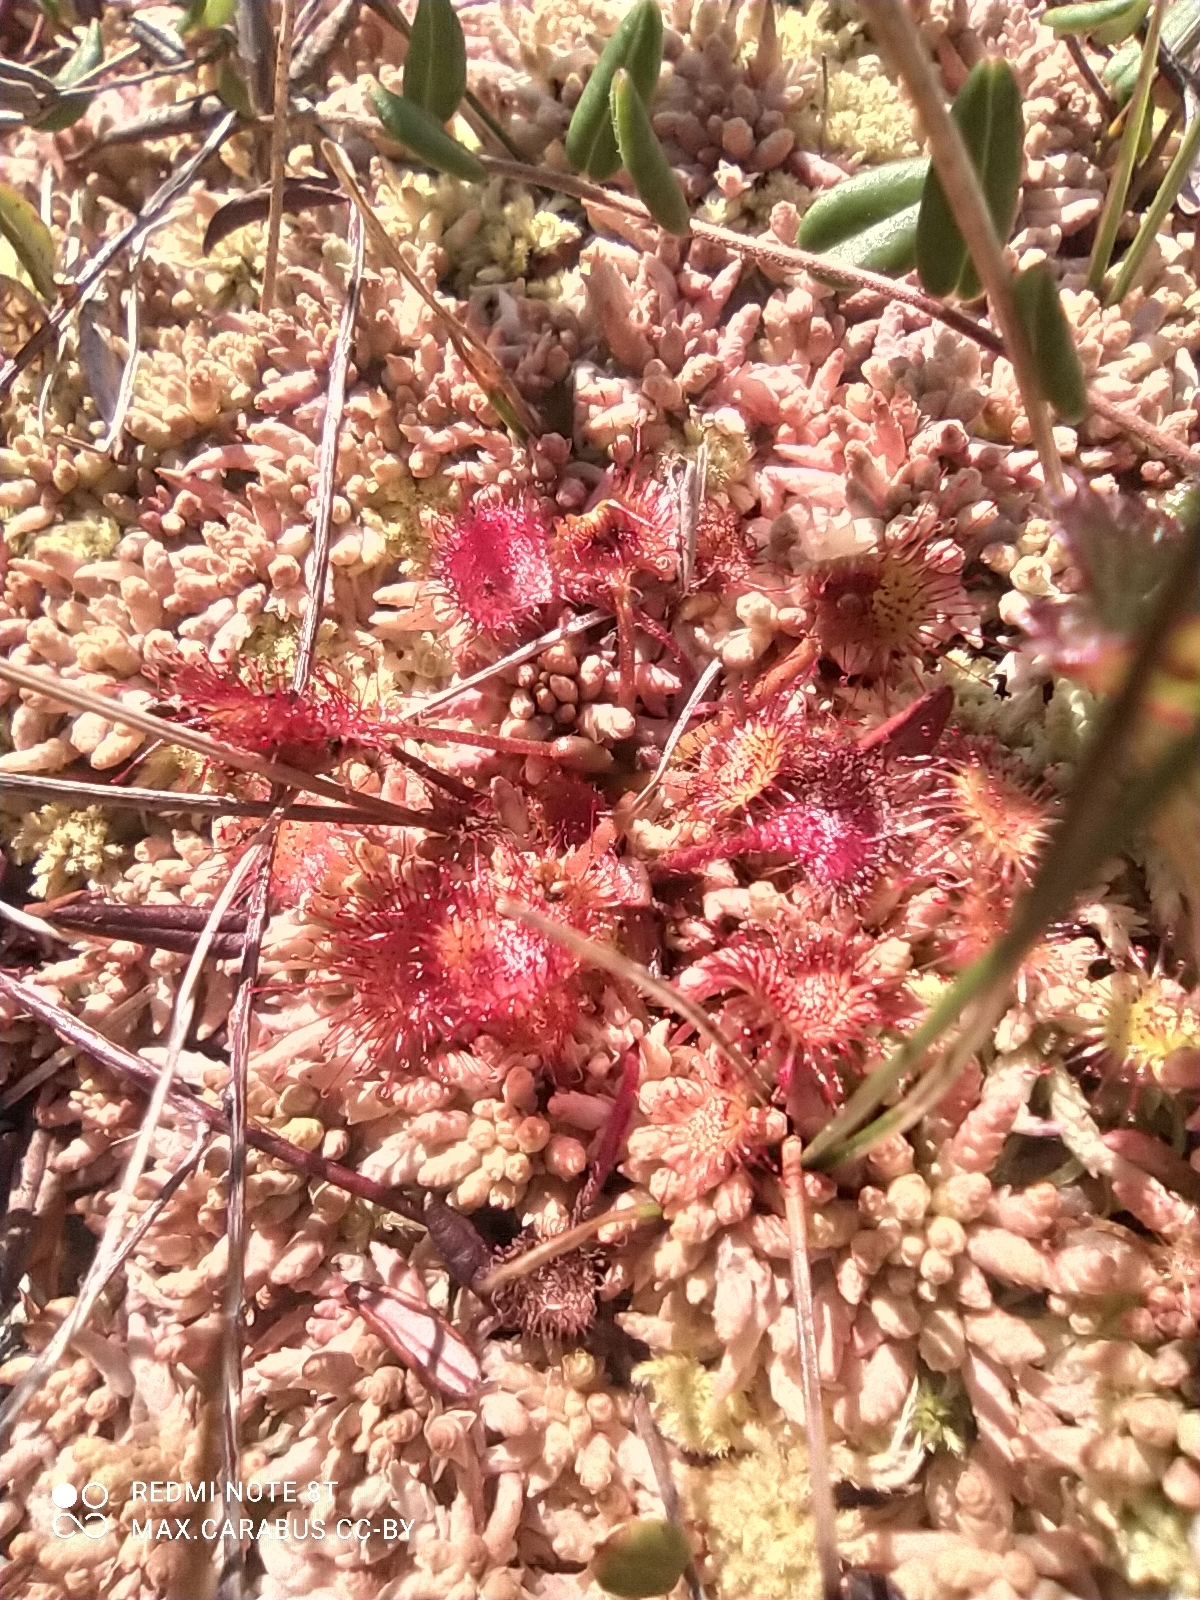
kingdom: Plantae
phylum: Tracheophyta
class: Magnoliopsida
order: Caryophyllales
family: Droseraceae
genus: Drosera
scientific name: Drosera rotundifolia
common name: Round-leaved sundew
